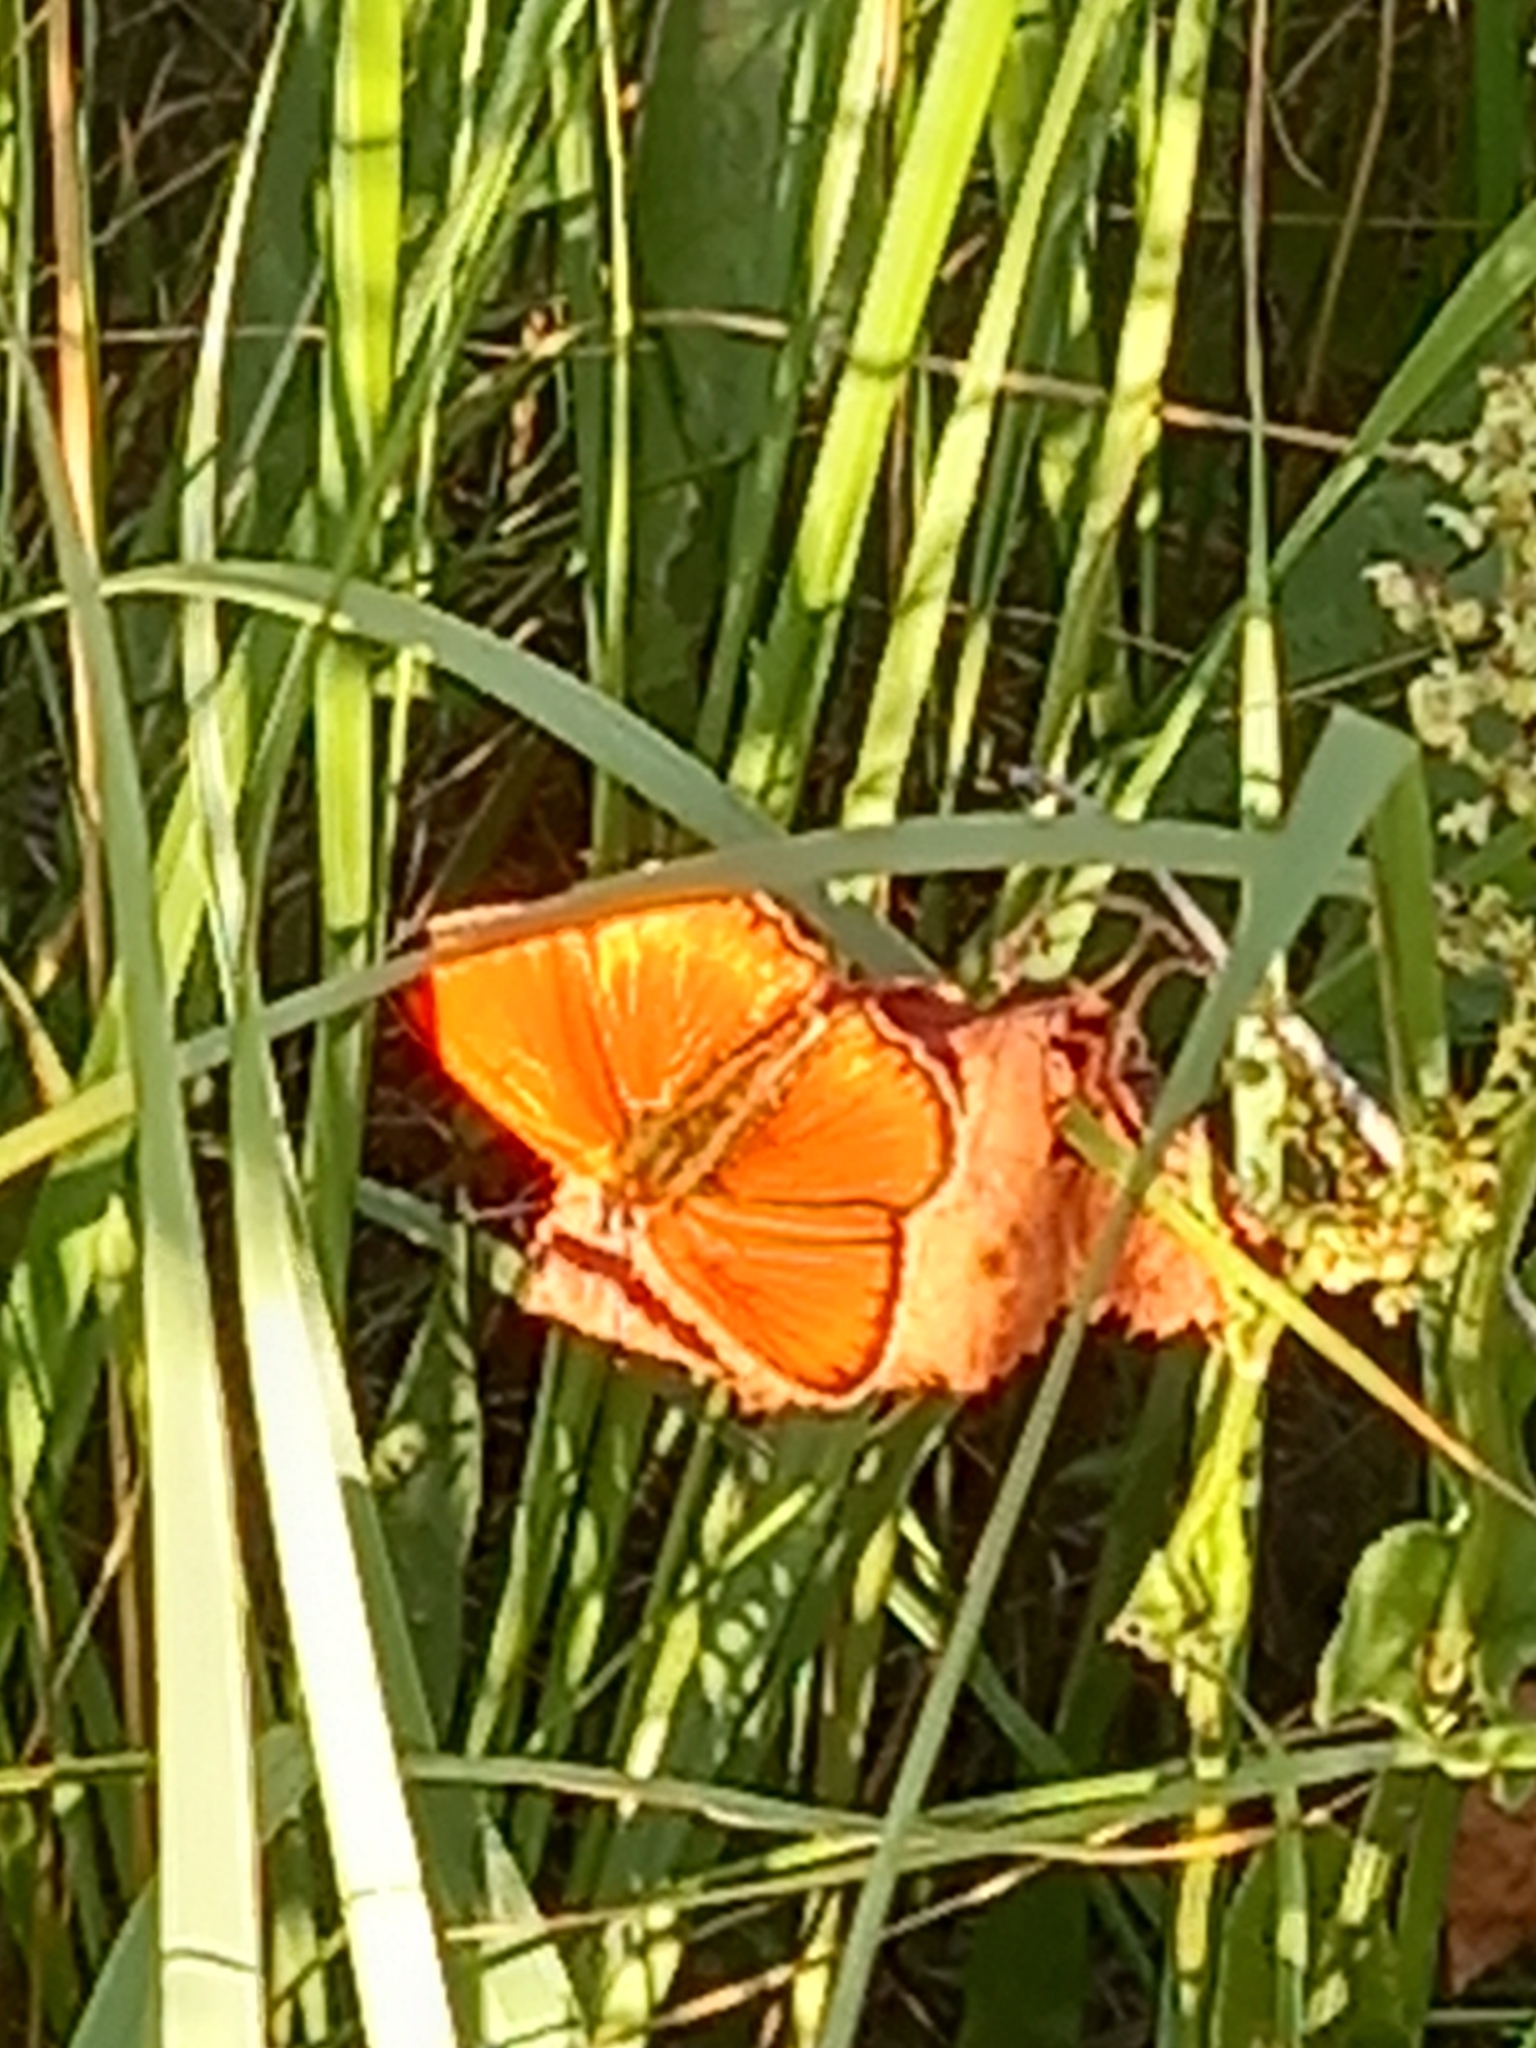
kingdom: Animalia
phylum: Arthropoda
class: Insecta
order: Lepidoptera
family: Lycaenidae
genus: Lycaena
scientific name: Lycaena virgaureae
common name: Scarce copper
